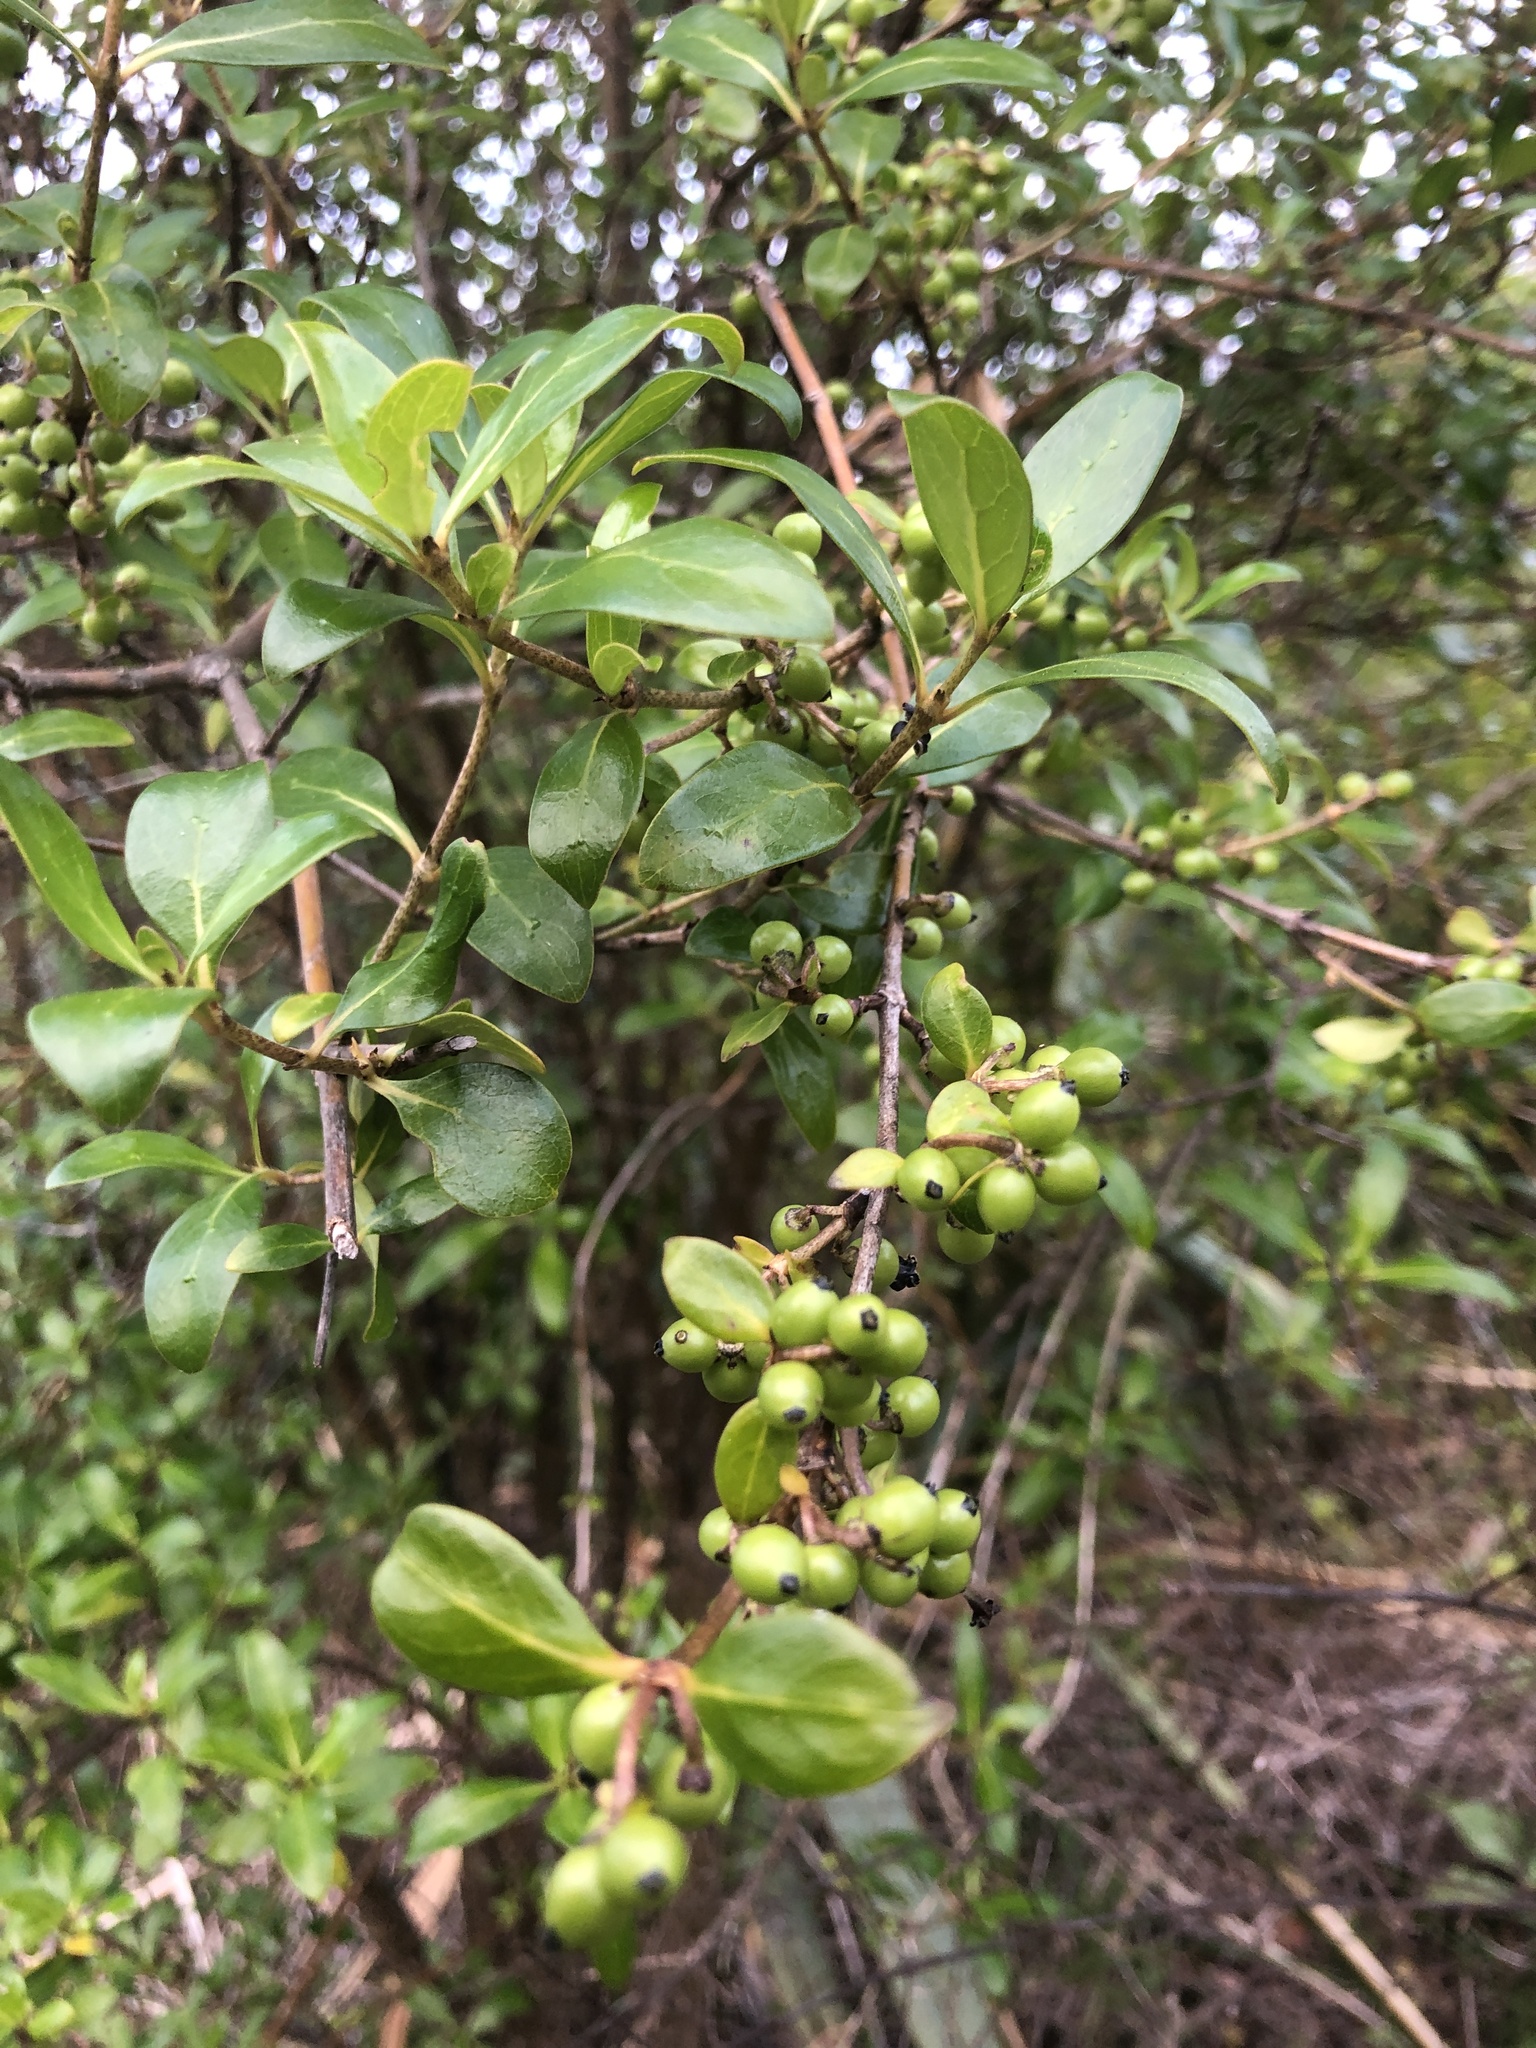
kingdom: Plantae
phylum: Tracheophyta
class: Magnoliopsida
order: Gentianales
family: Rubiaceae
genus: Coprosma
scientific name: Coprosma lucida
